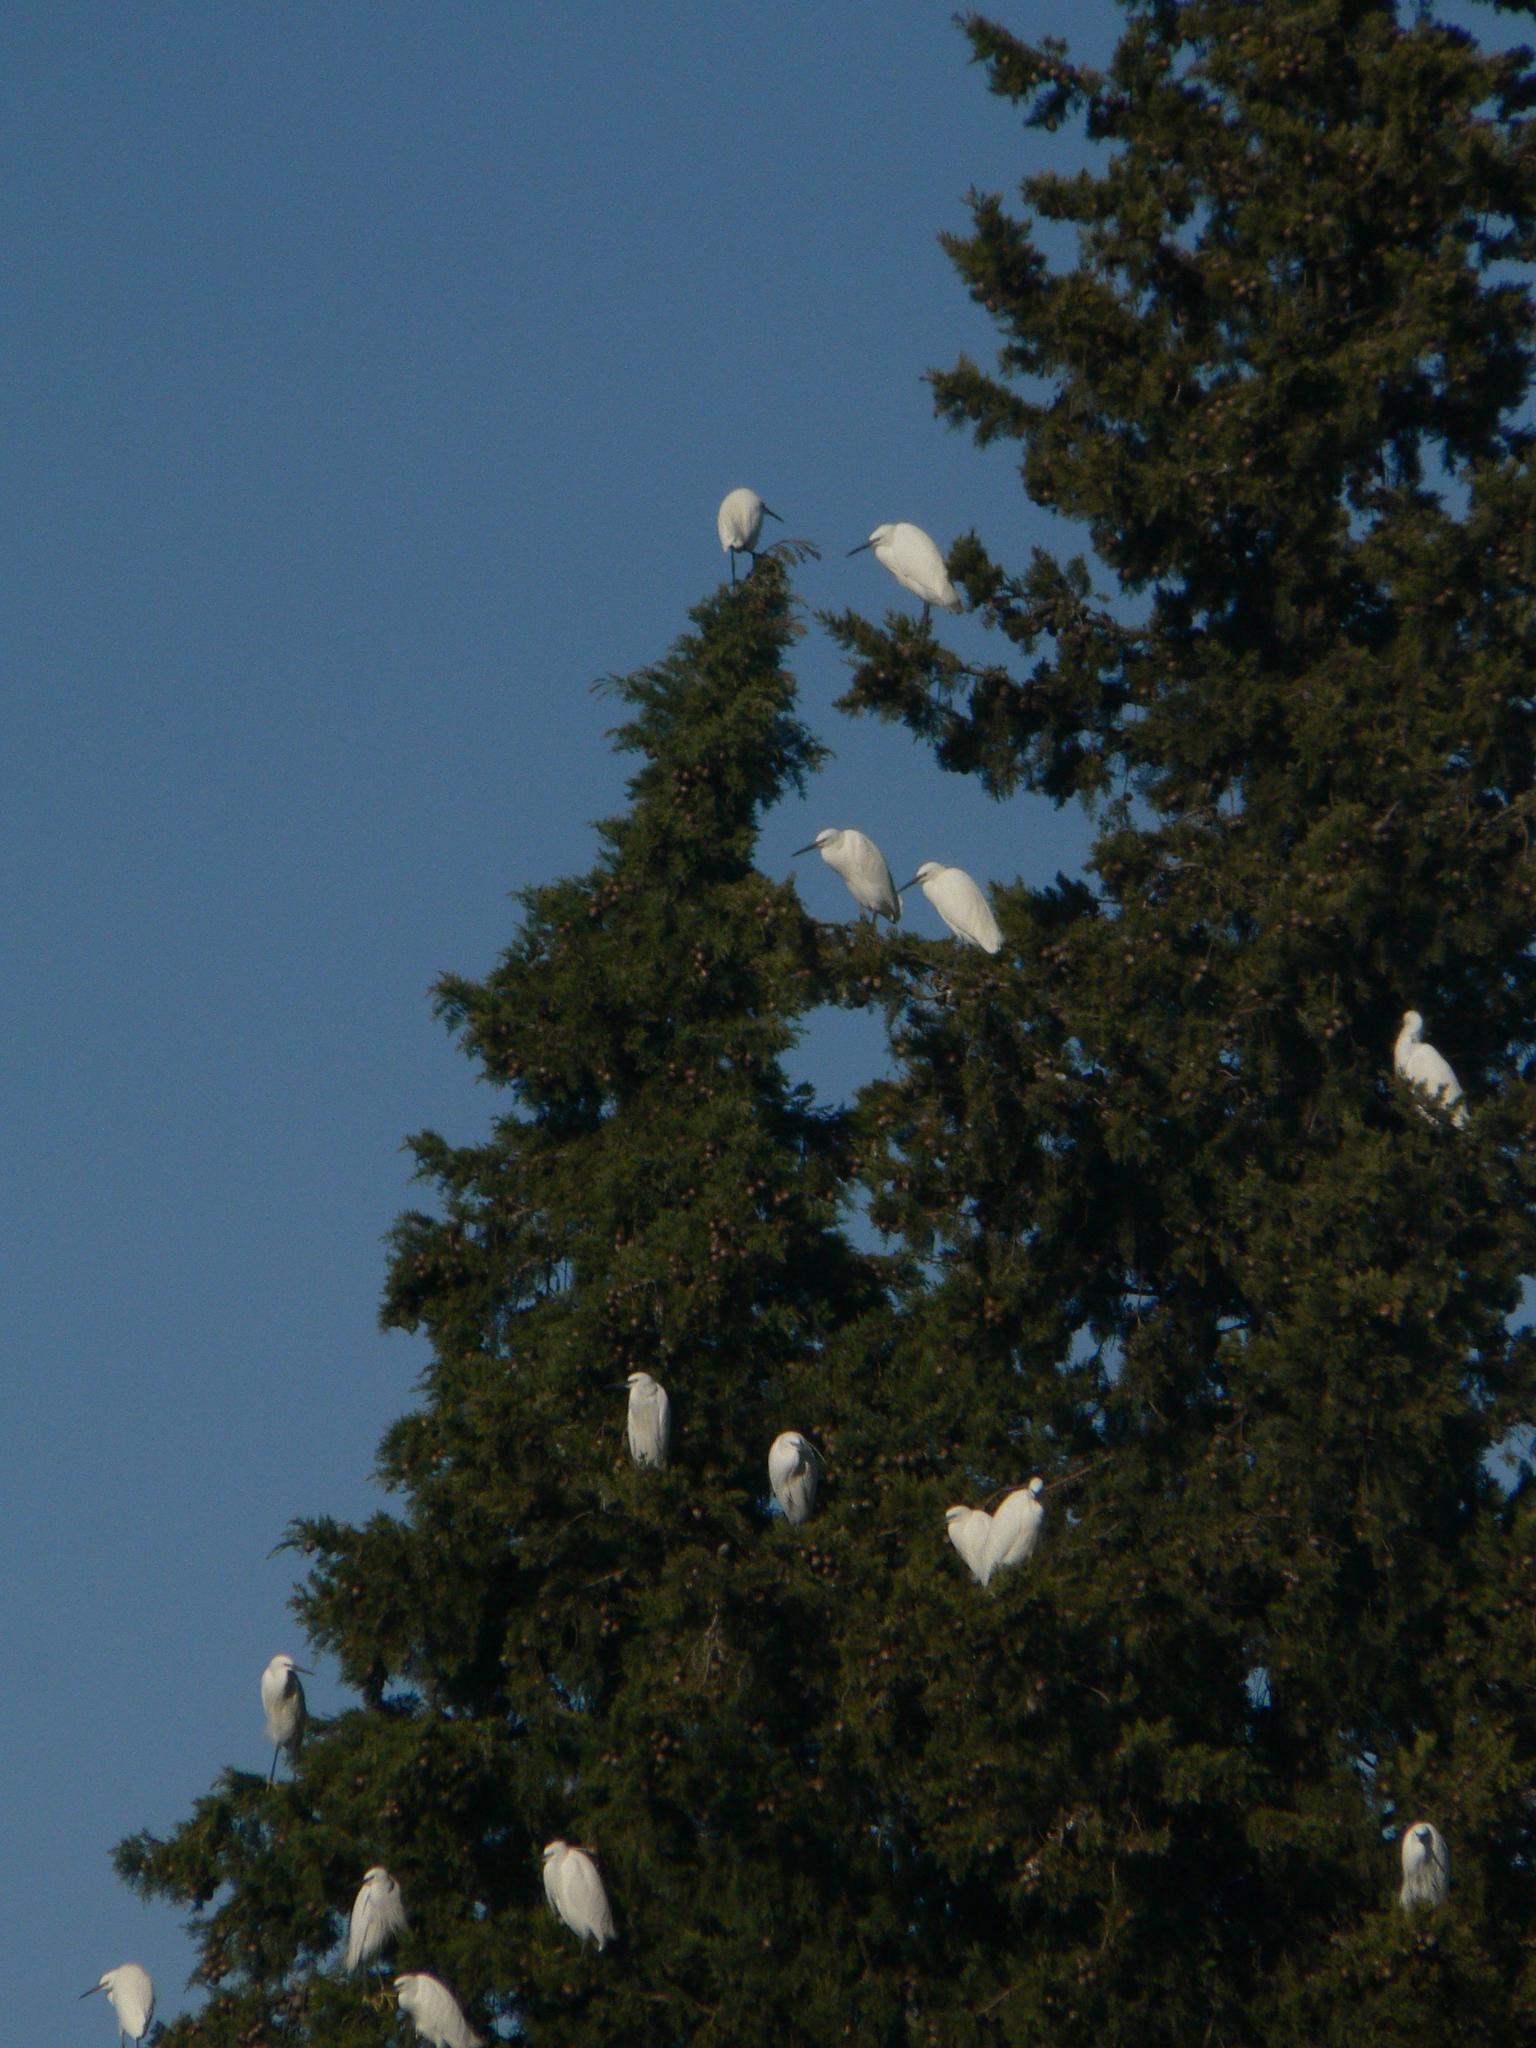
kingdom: Animalia
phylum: Chordata
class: Aves
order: Pelecaniformes
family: Ardeidae
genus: Egretta
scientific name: Egretta garzetta
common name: Little egret
